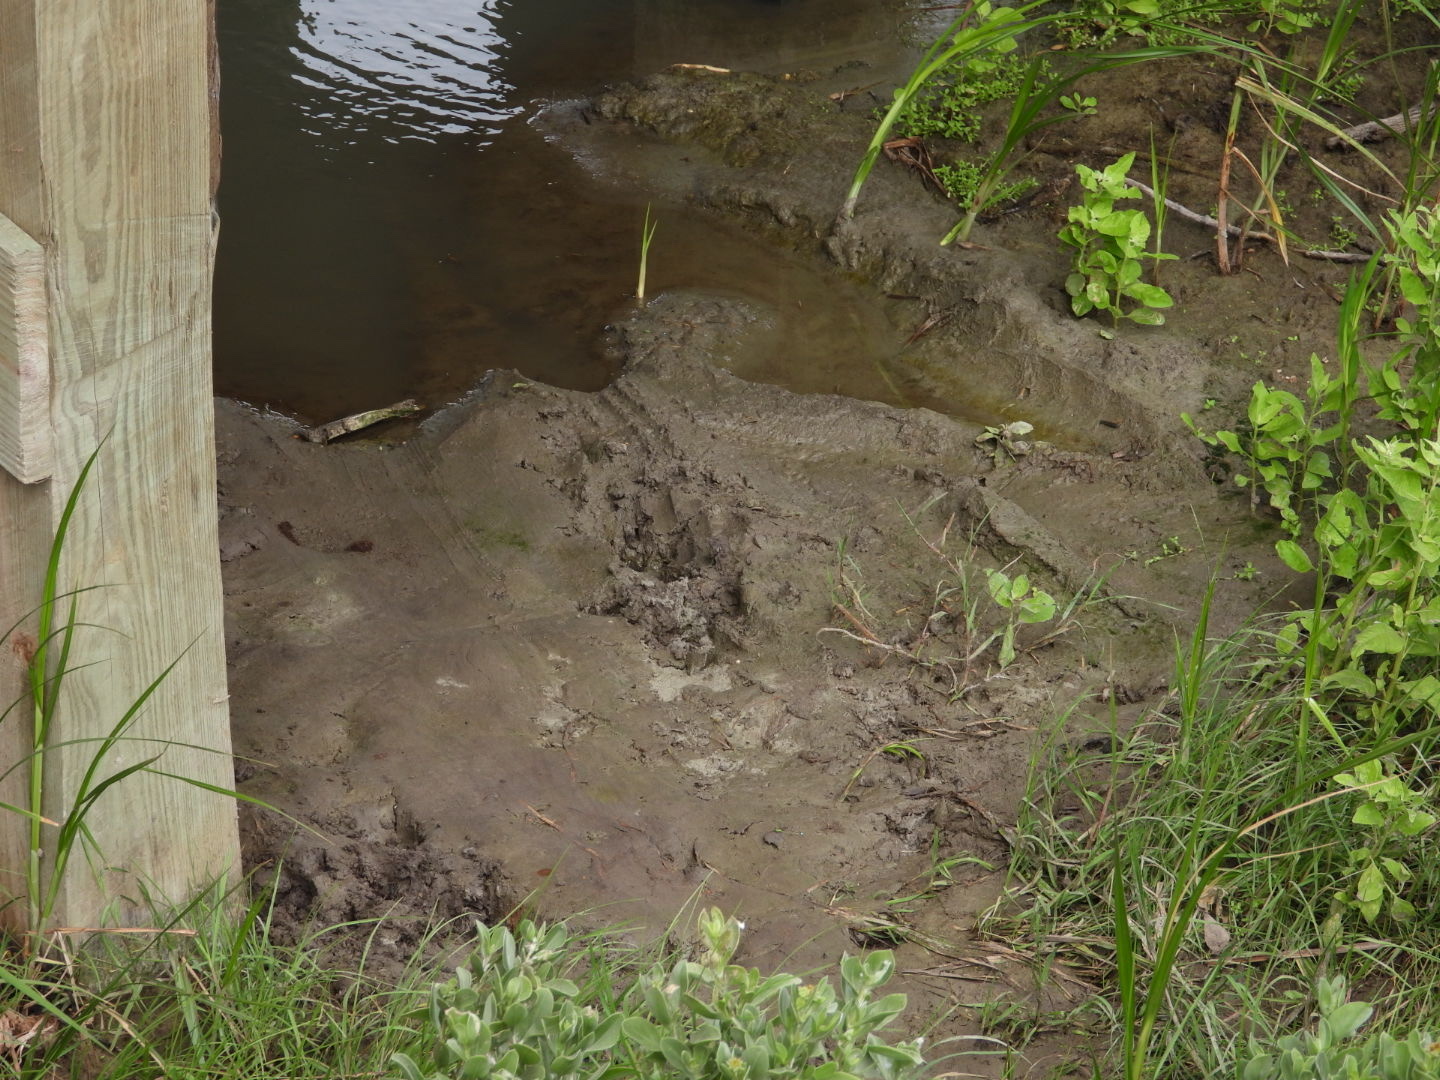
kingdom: Animalia
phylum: Chordata
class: Crocodylia
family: Alligatoridae
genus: Alligator
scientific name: Alligator mississippiensis
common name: American alligator
